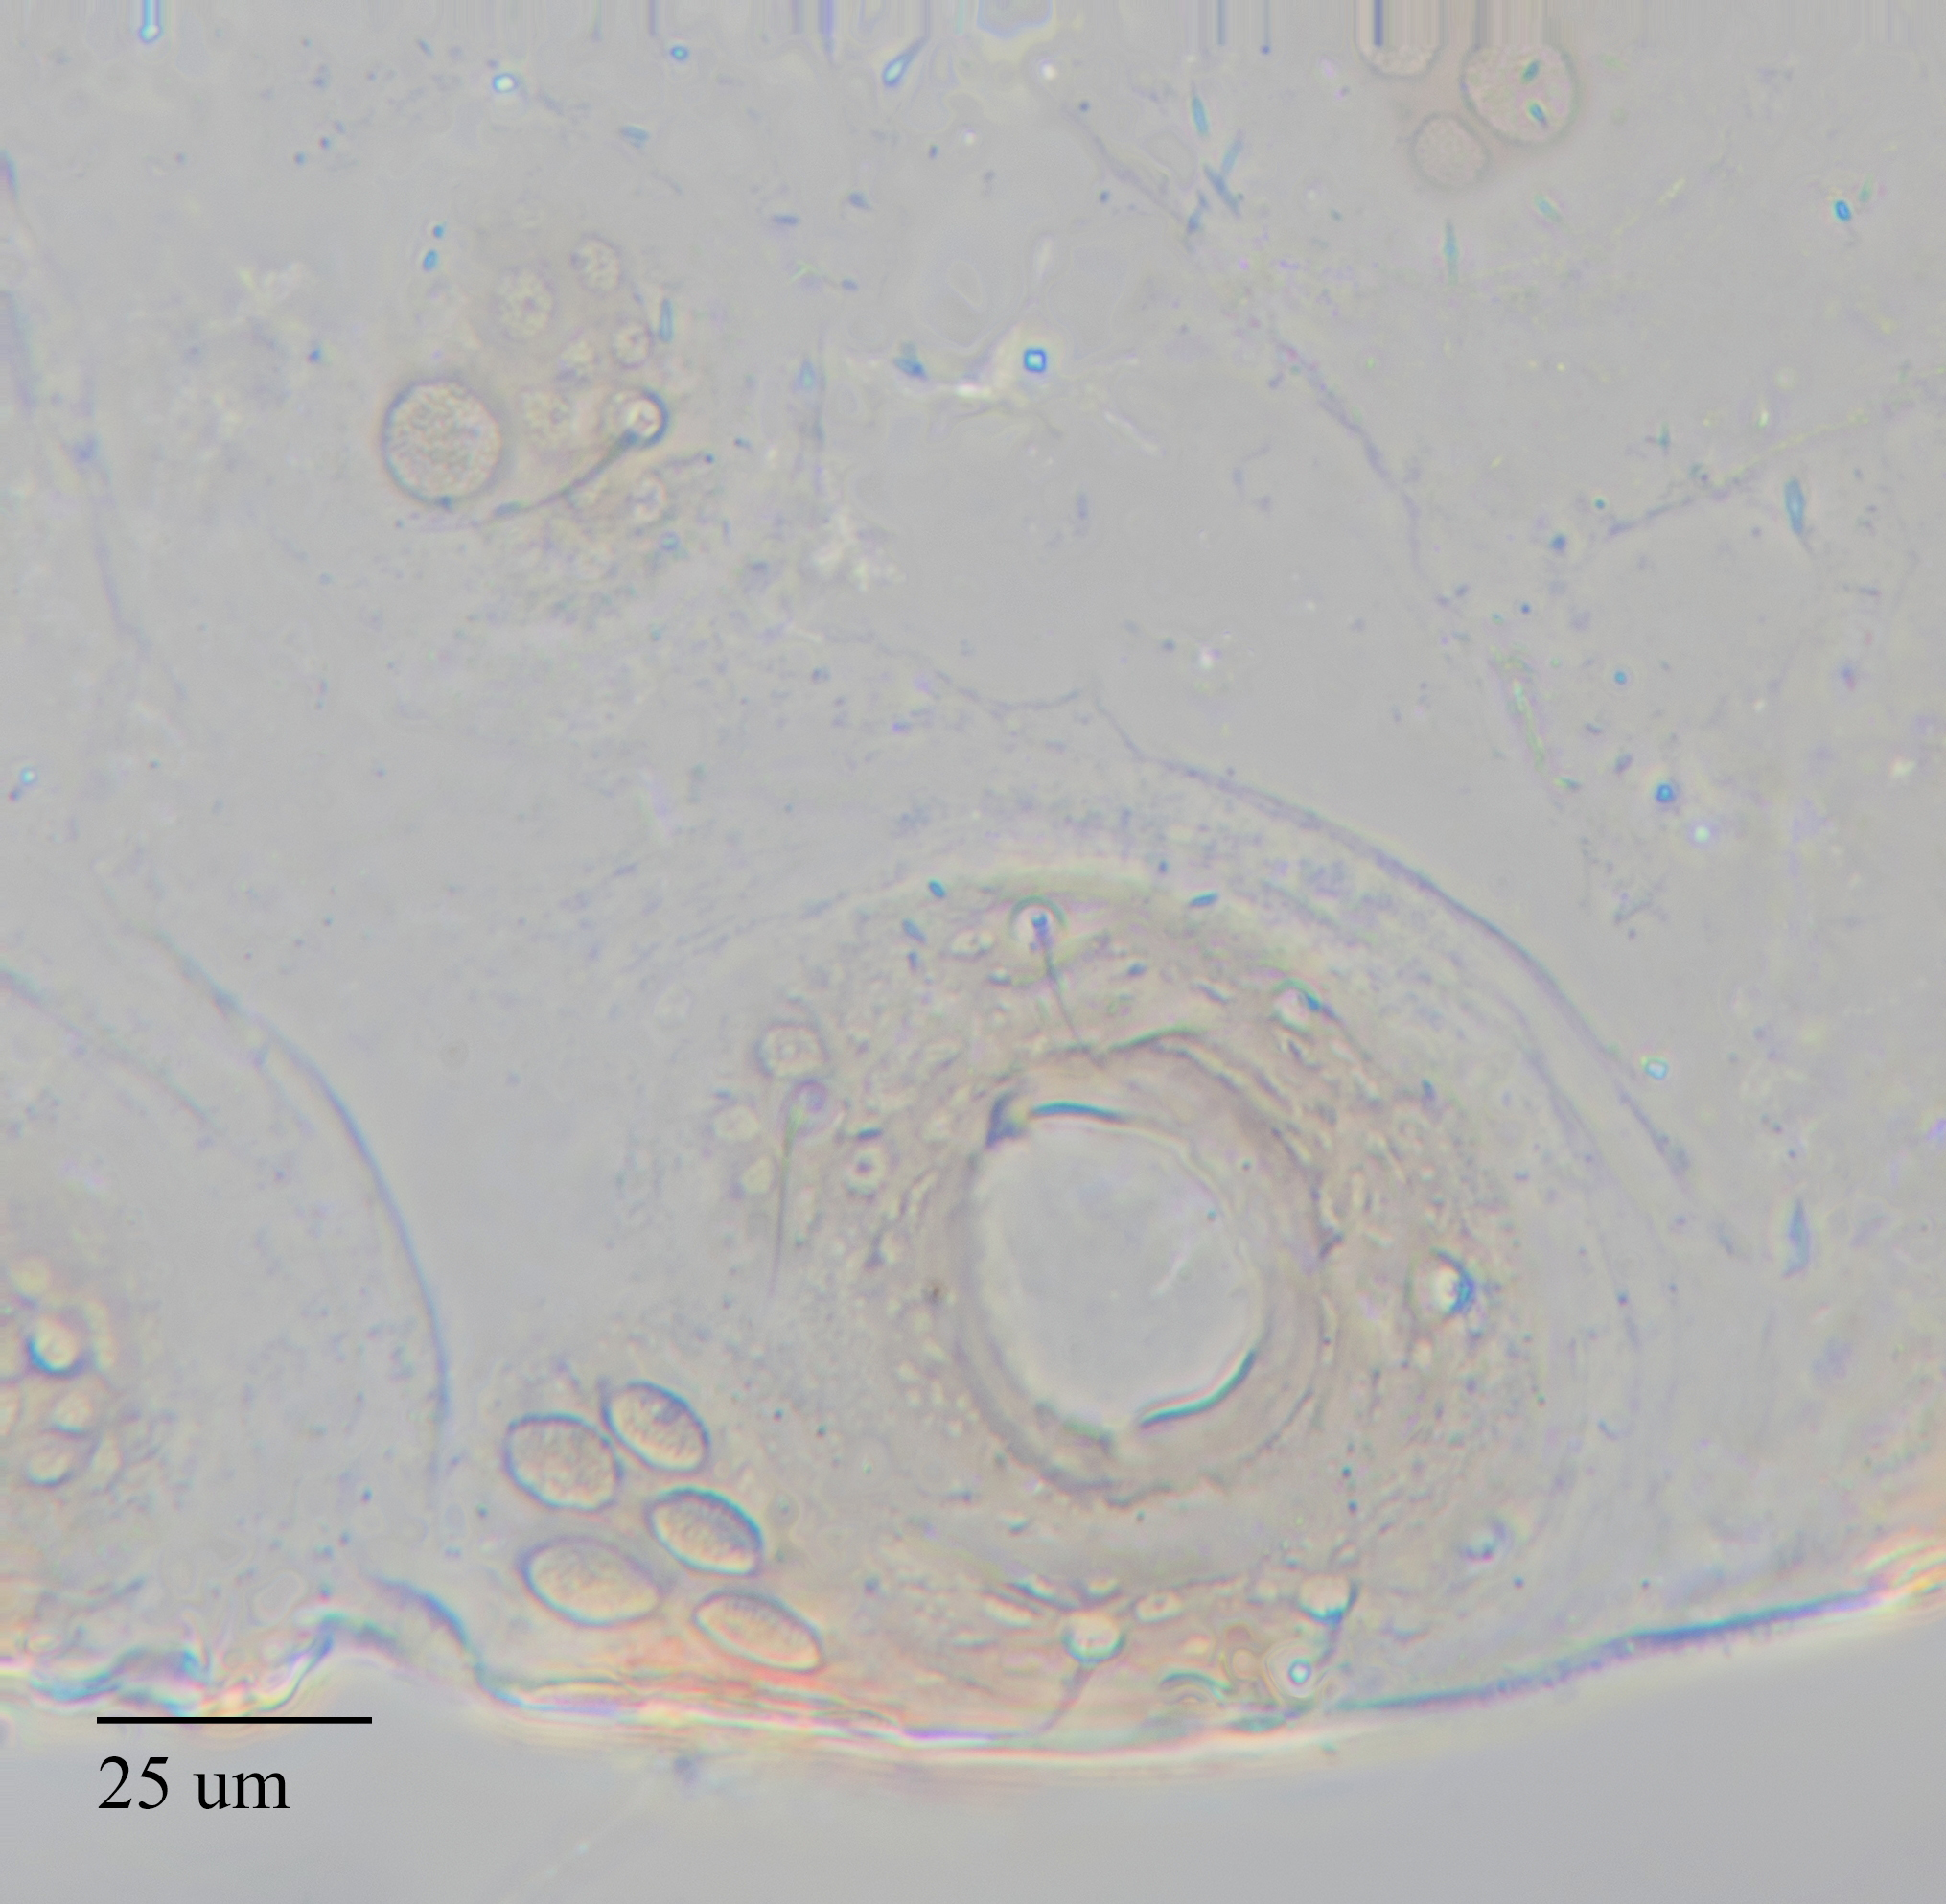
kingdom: Animalia
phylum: Arthropoda
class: Insecta
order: Hemiptera
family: Aphididae
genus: Stegophylla
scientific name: Stegophylla essigi
